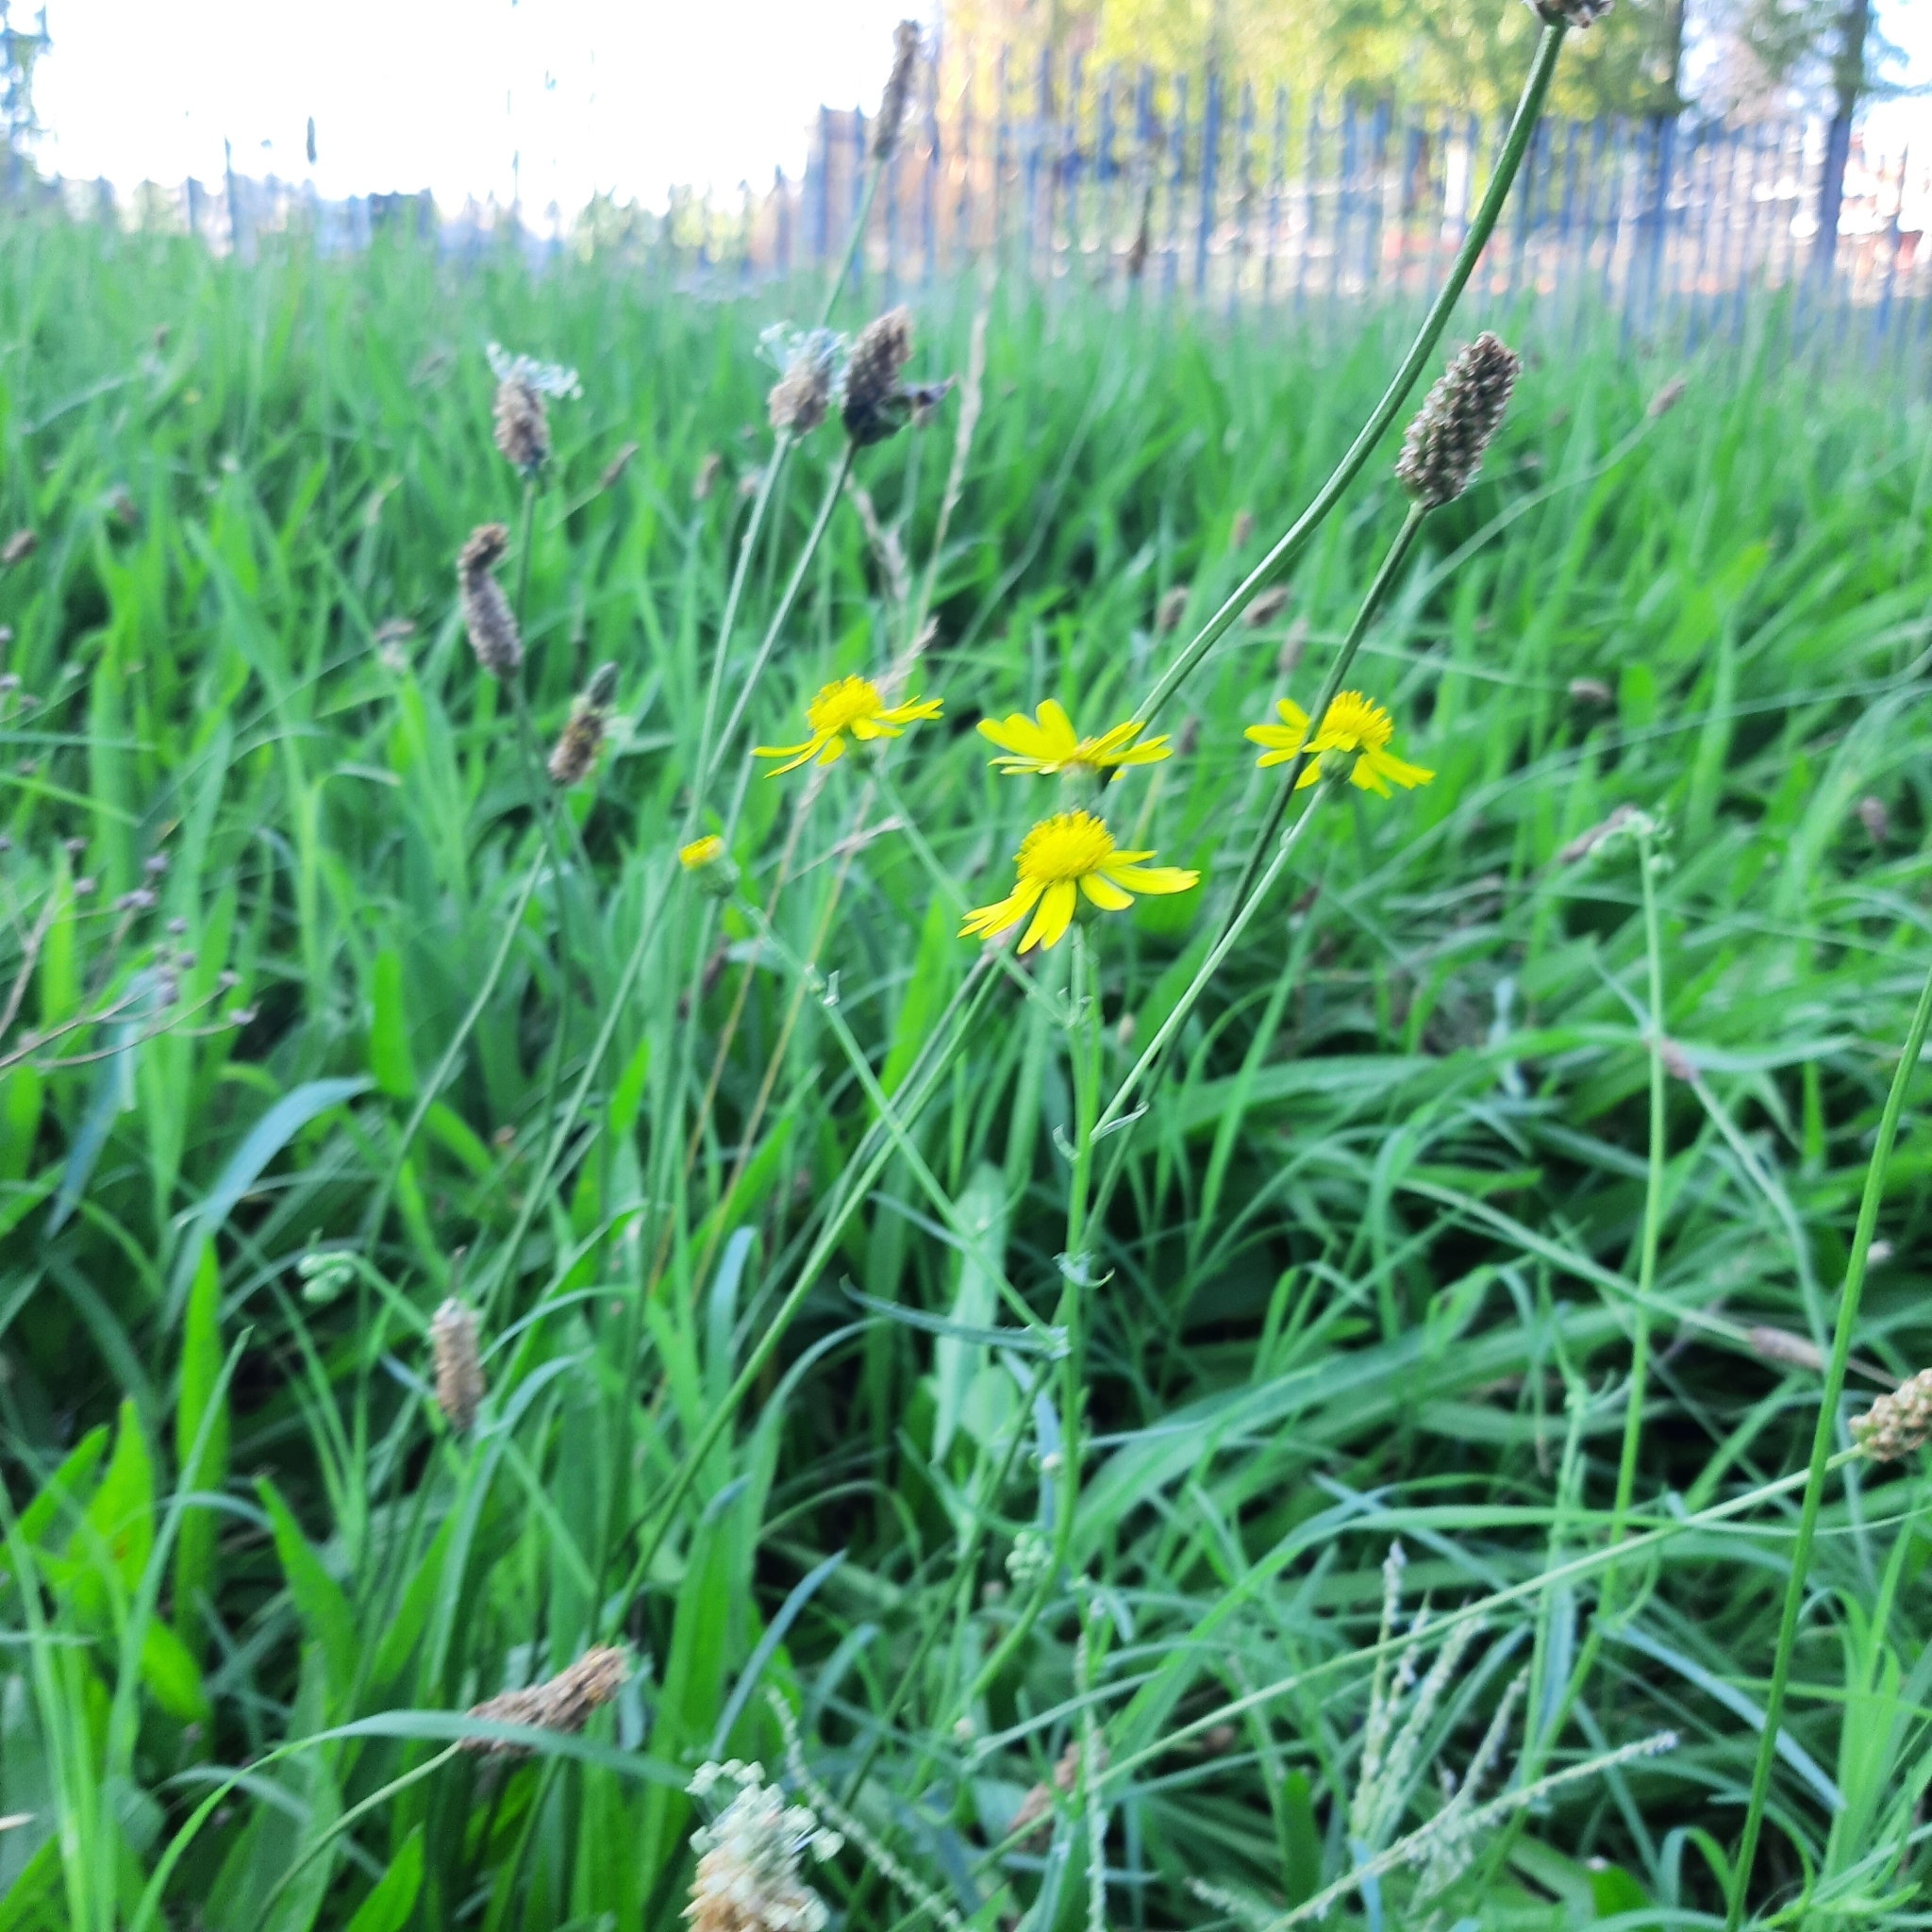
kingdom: Plantae
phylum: Tracheophyta
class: Magnoliopsida
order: Asterales
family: Asteraceae
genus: Senecio
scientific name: Senecio inaequidens
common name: Narrow-leaved ragwort
